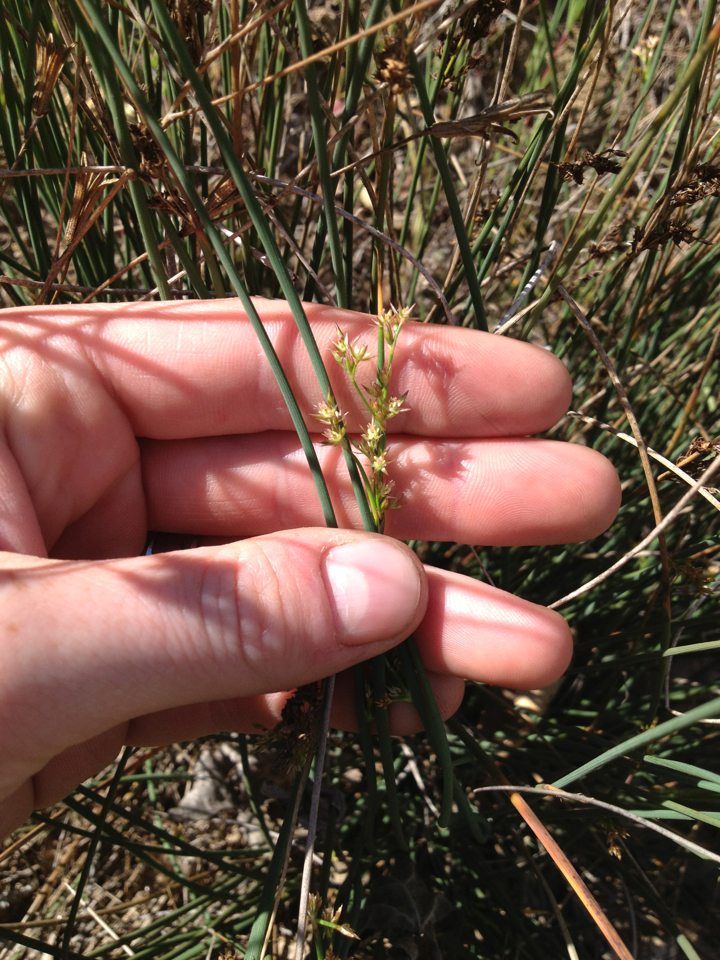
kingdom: Plantae
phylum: Tracheophyta
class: Liliopsida
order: Poales
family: Juncaceae
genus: Juncus
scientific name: Juncus patens
